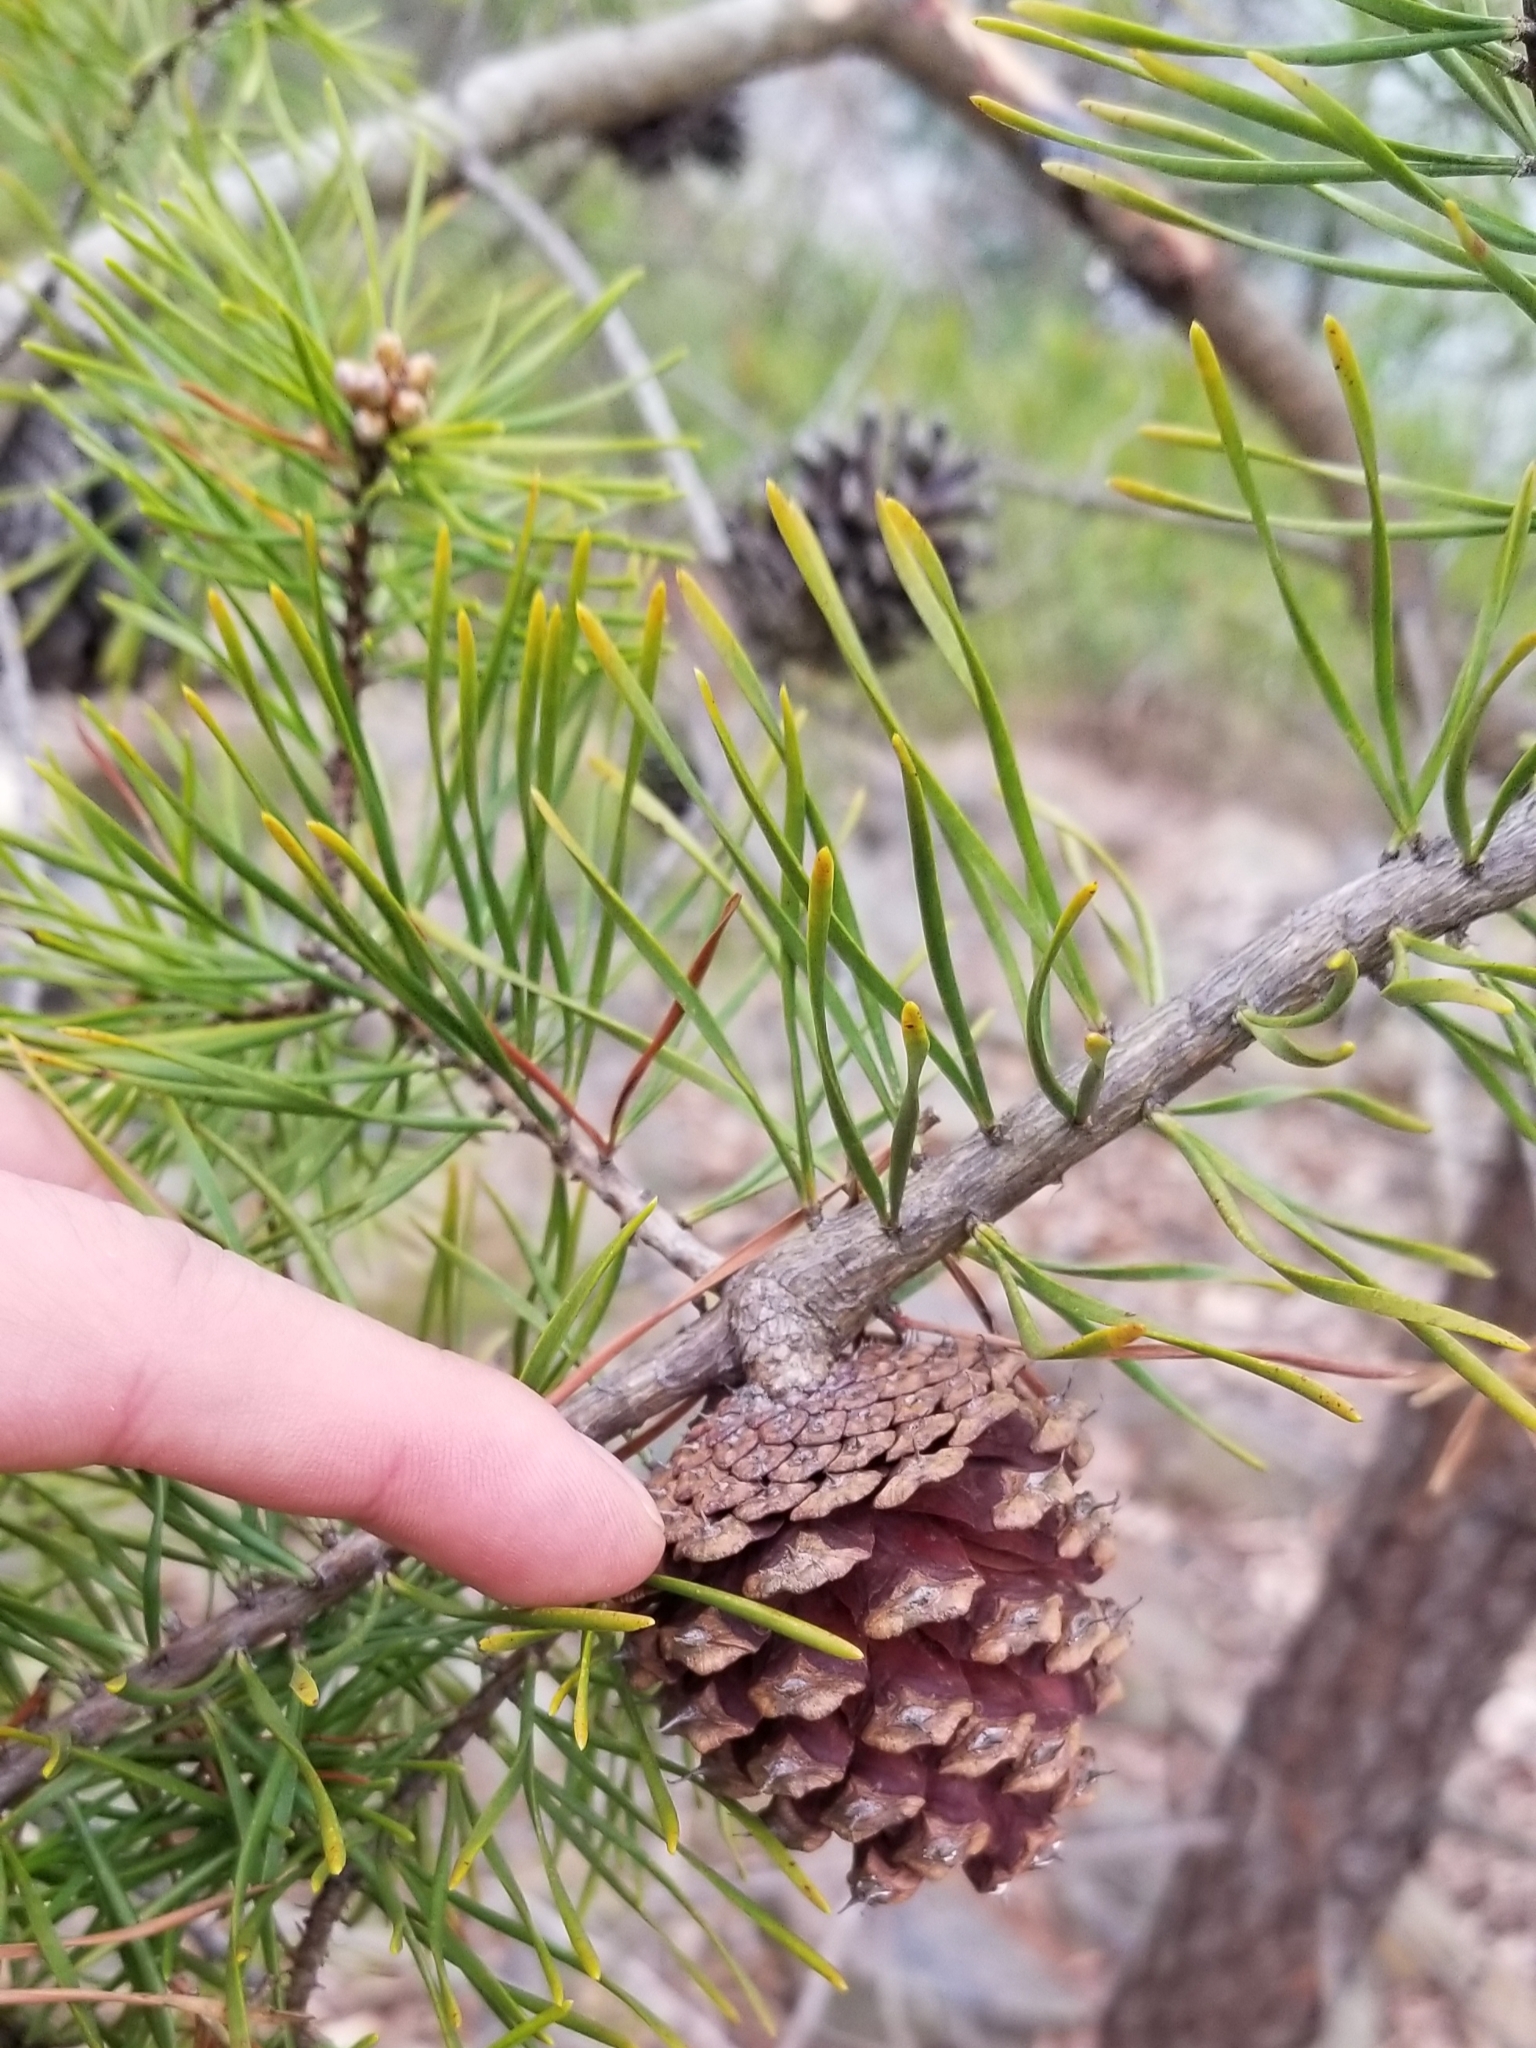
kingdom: Plantae
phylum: Tracheophyta
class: Pinopsida
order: Pinales
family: Pinaceae
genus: Pinus
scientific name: Pinus virginiana
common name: Scrub pine
